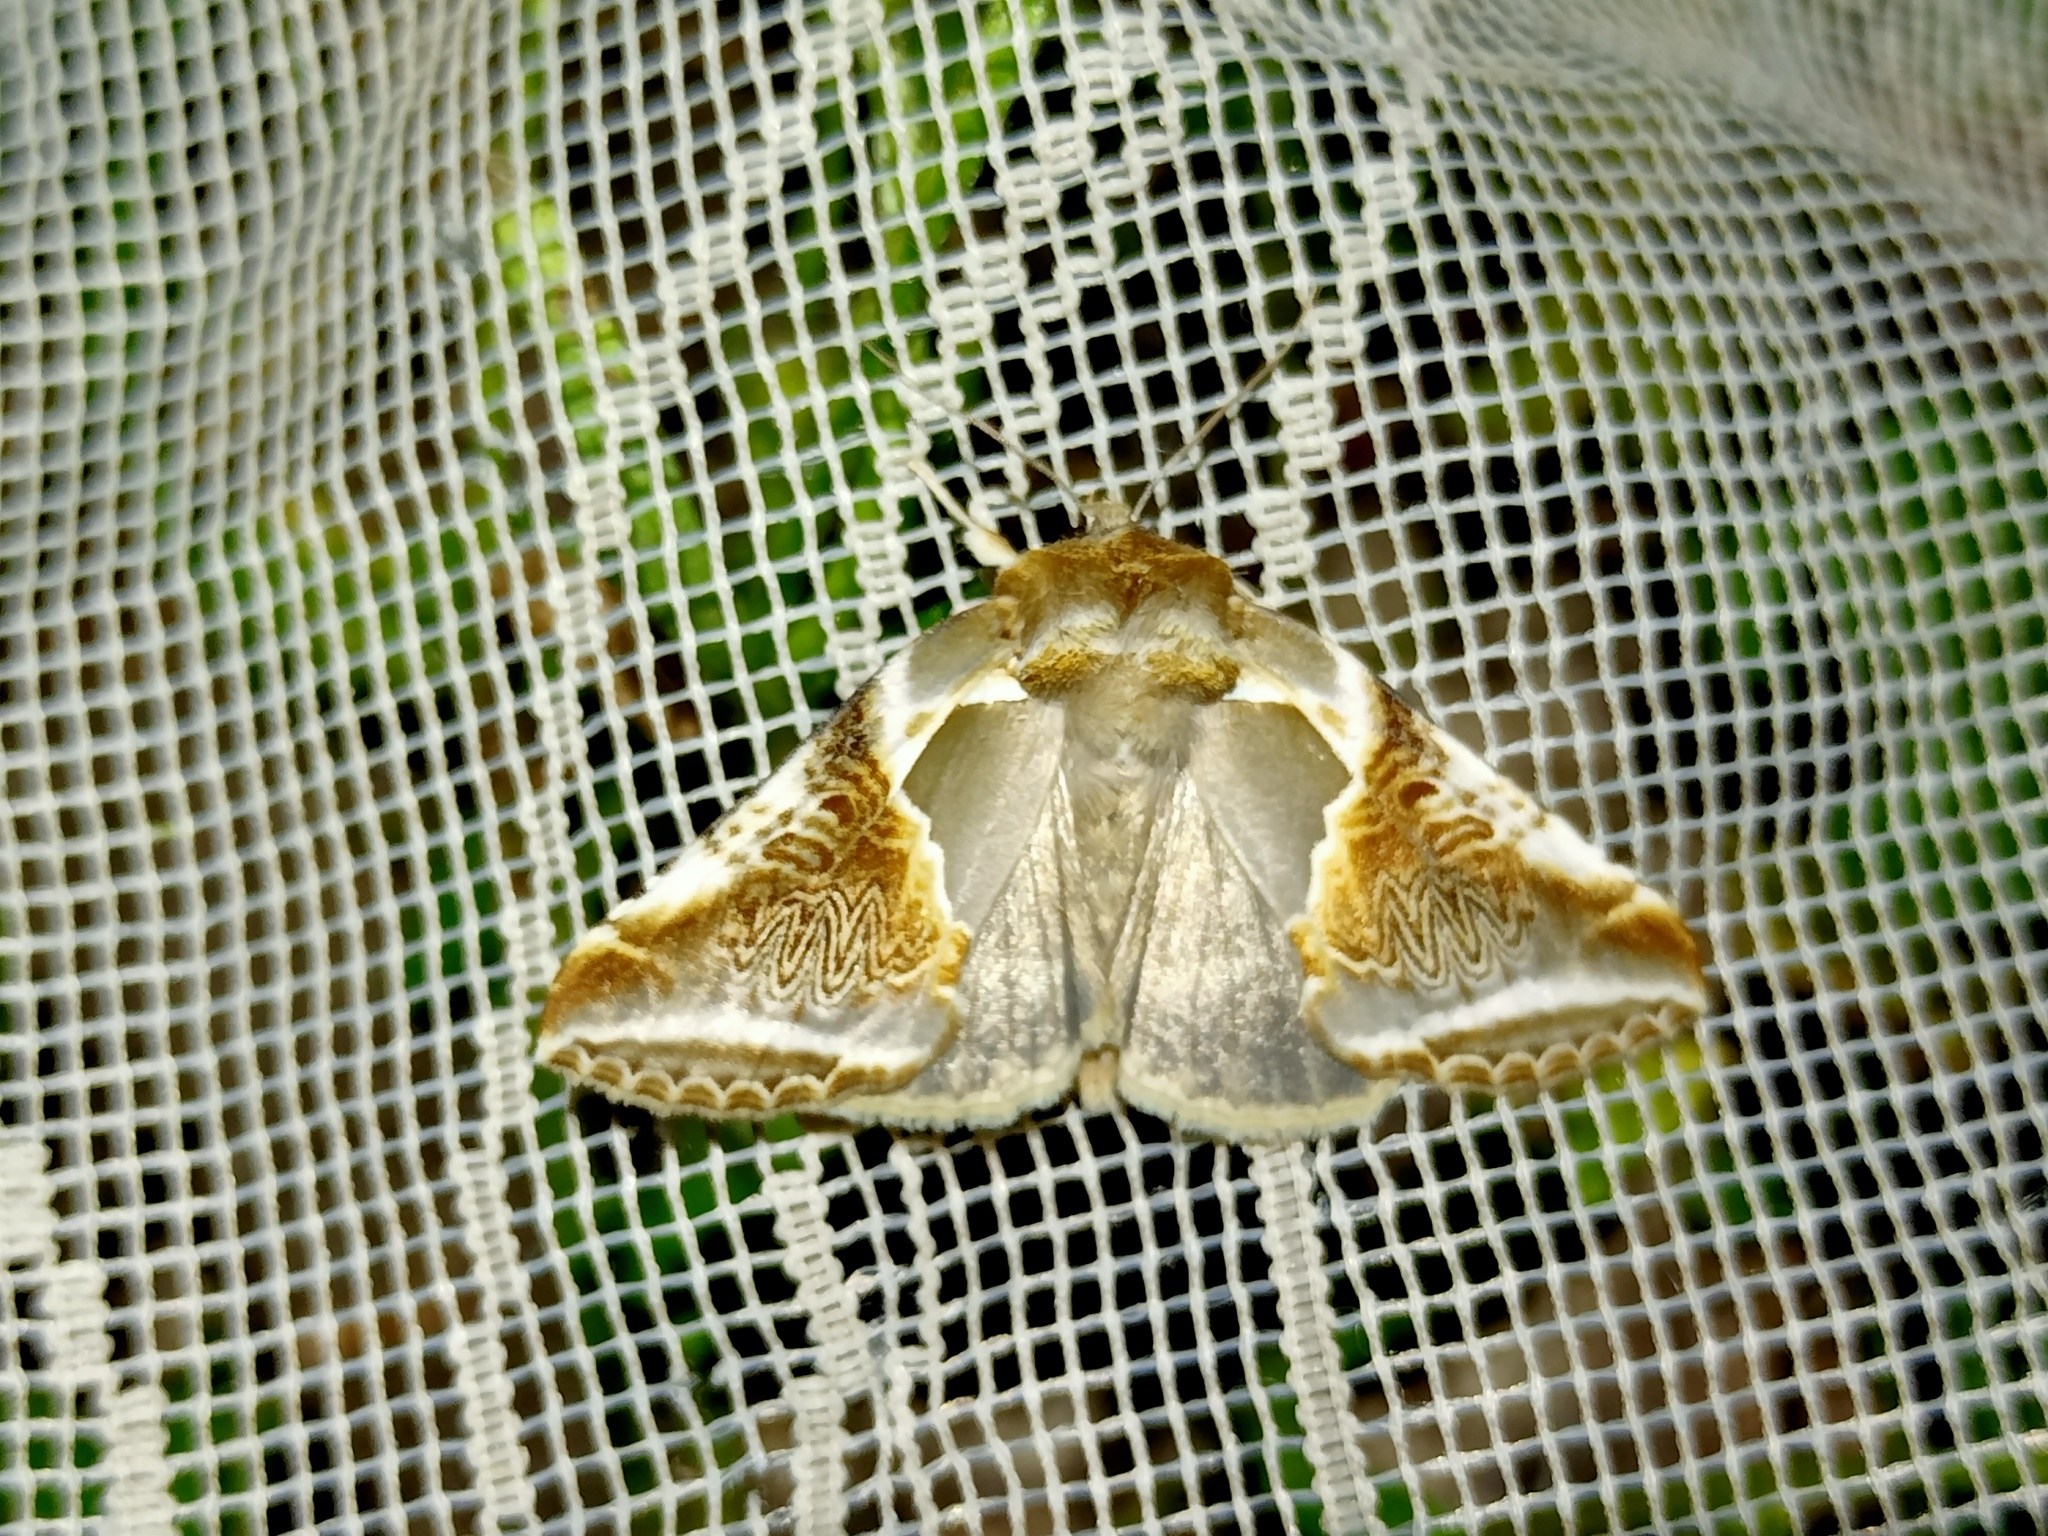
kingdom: Animalia
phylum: Arthropoda
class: Insecta
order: Lepidoptera
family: Drepanidae
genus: Habrosyne
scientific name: Habrosyne pyritoides
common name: Buff arches
